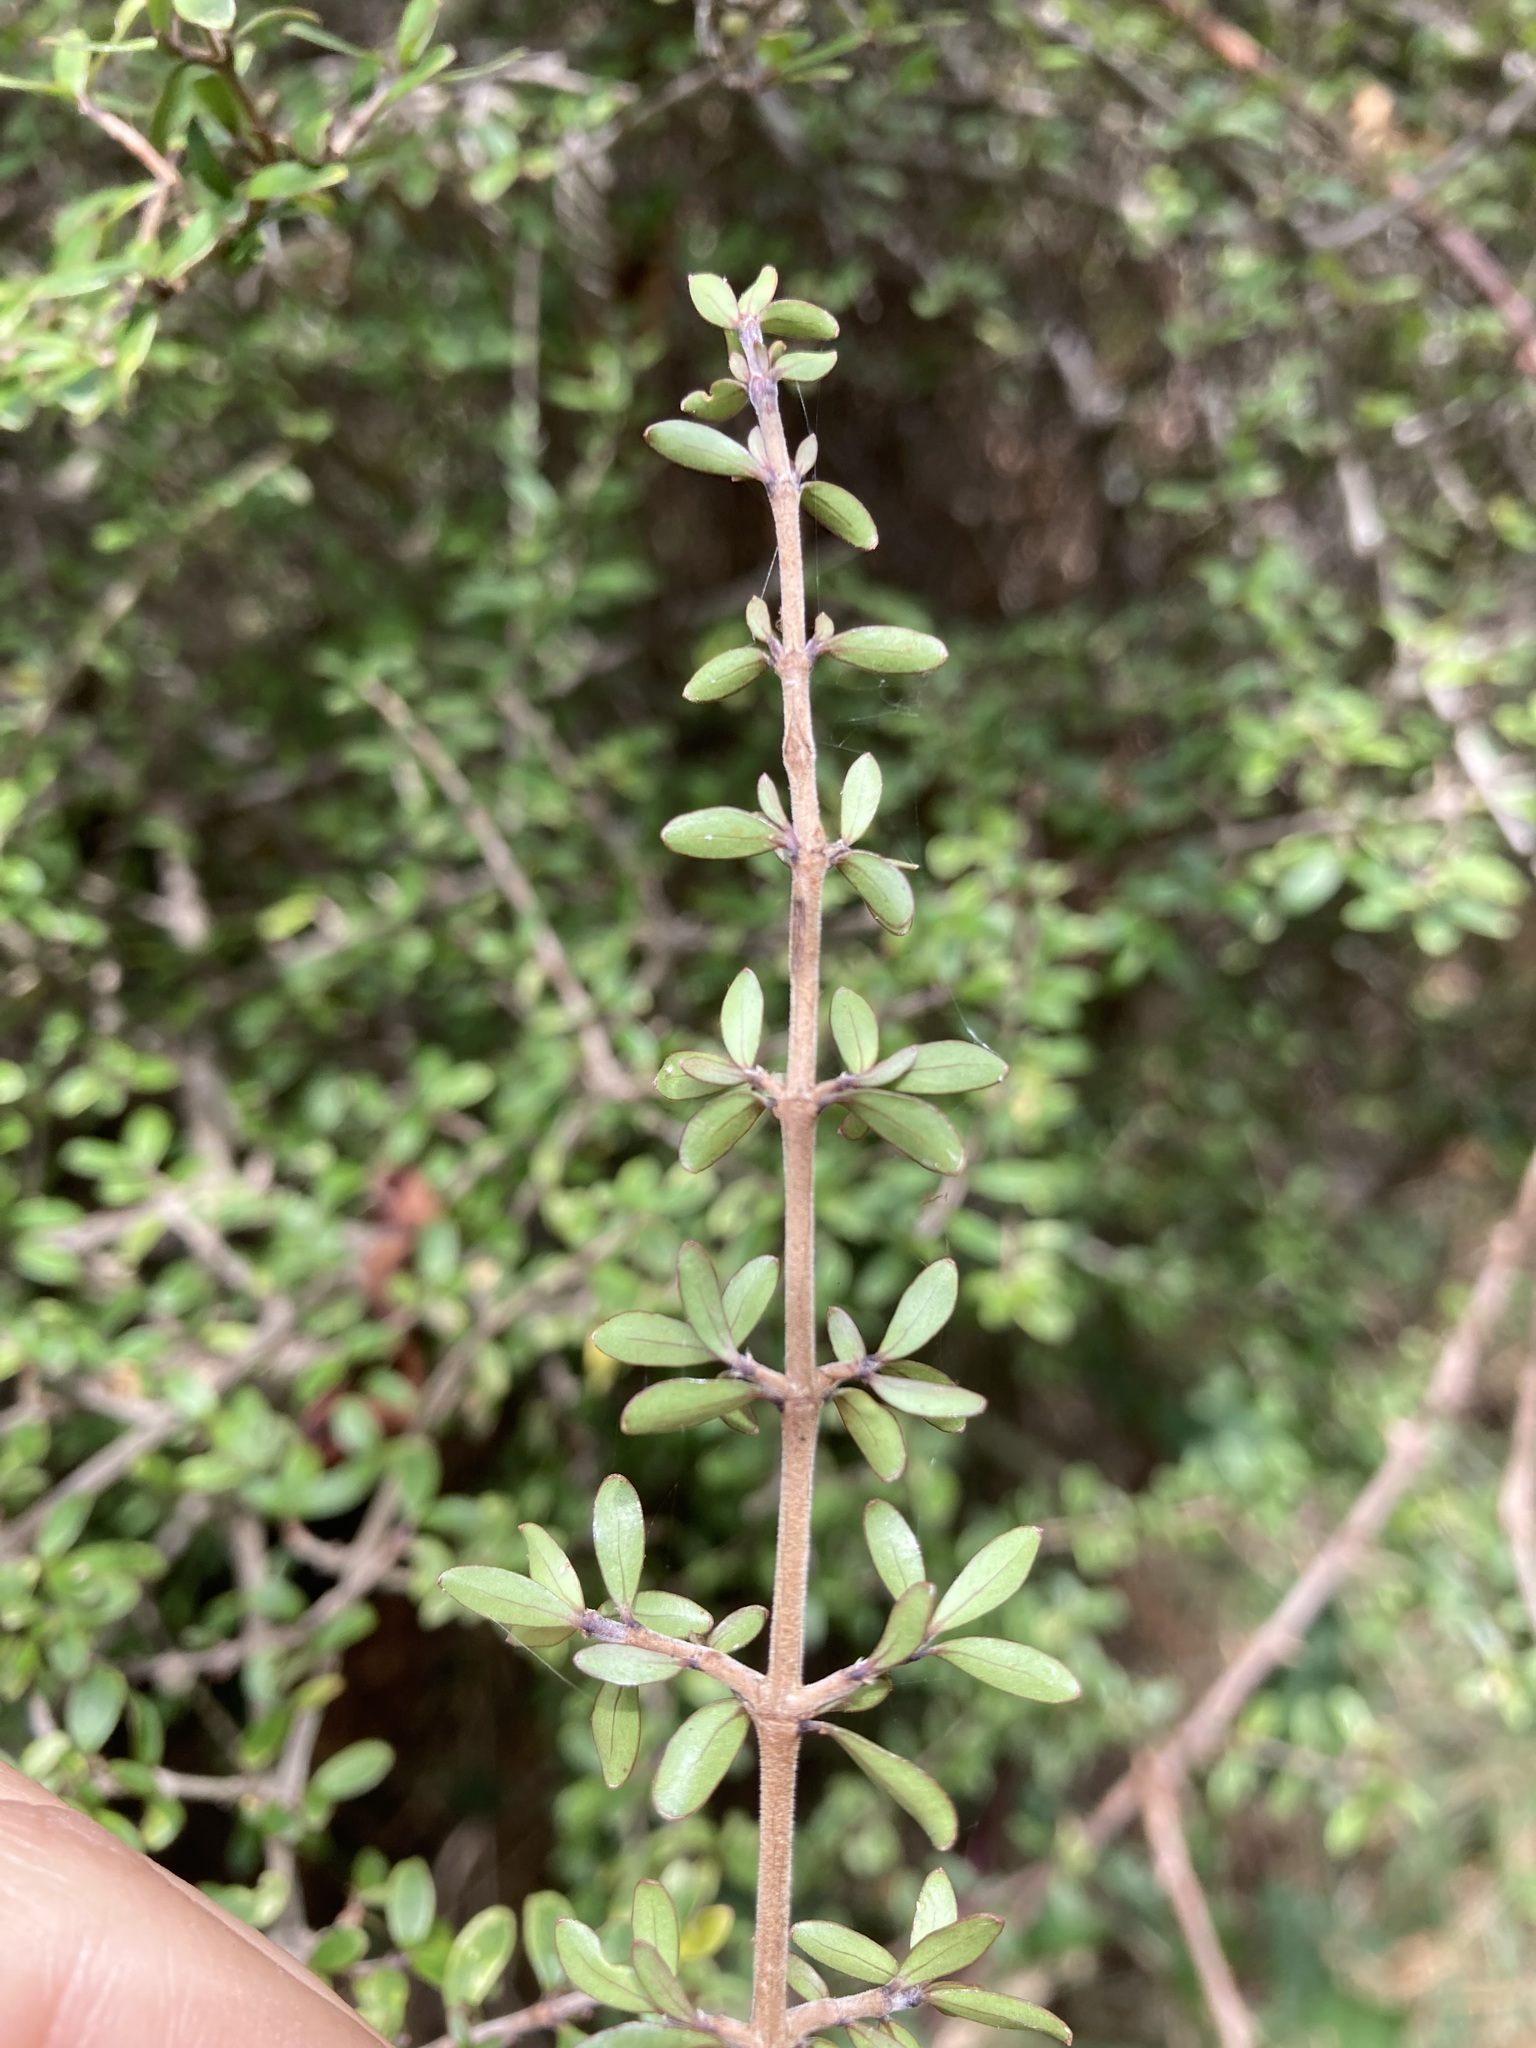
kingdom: Plantae
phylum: Tracheophyta
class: Magnoliopsida
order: Gentianales
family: Rubiaceae
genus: Coprosma
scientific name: Coprosma dumosa
